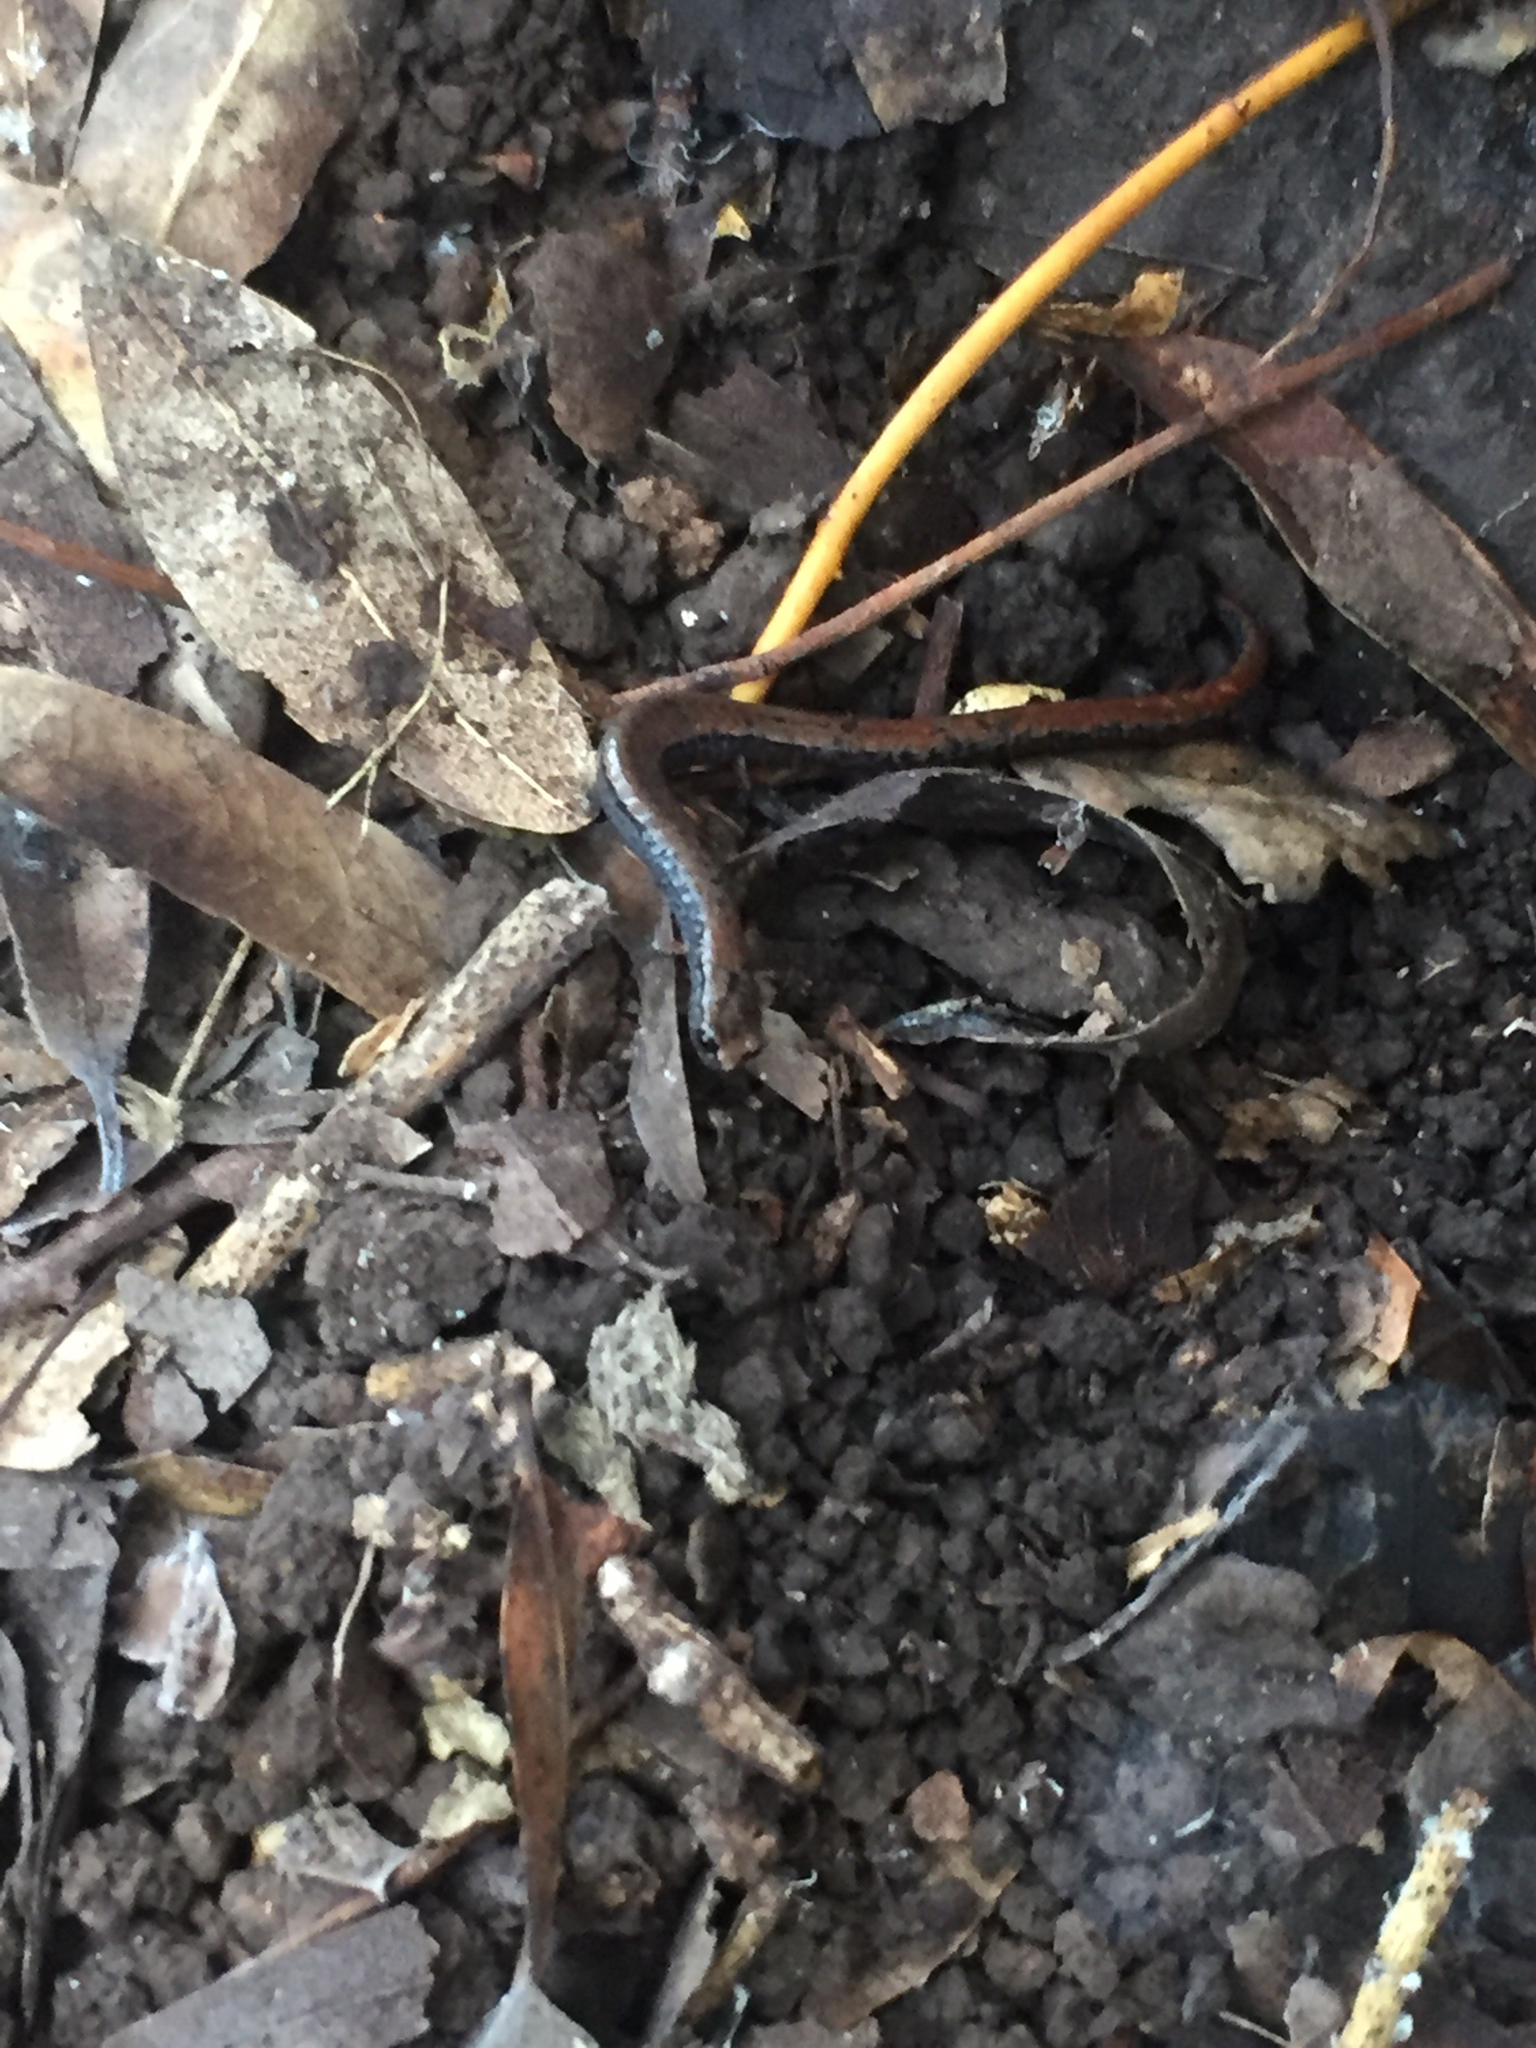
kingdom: Animalia
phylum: Chordata
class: Amphibia
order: Caudata
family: Plethodontidae
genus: Batrachoseps
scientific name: Batrachoseps attenuatus
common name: California slender salamander
